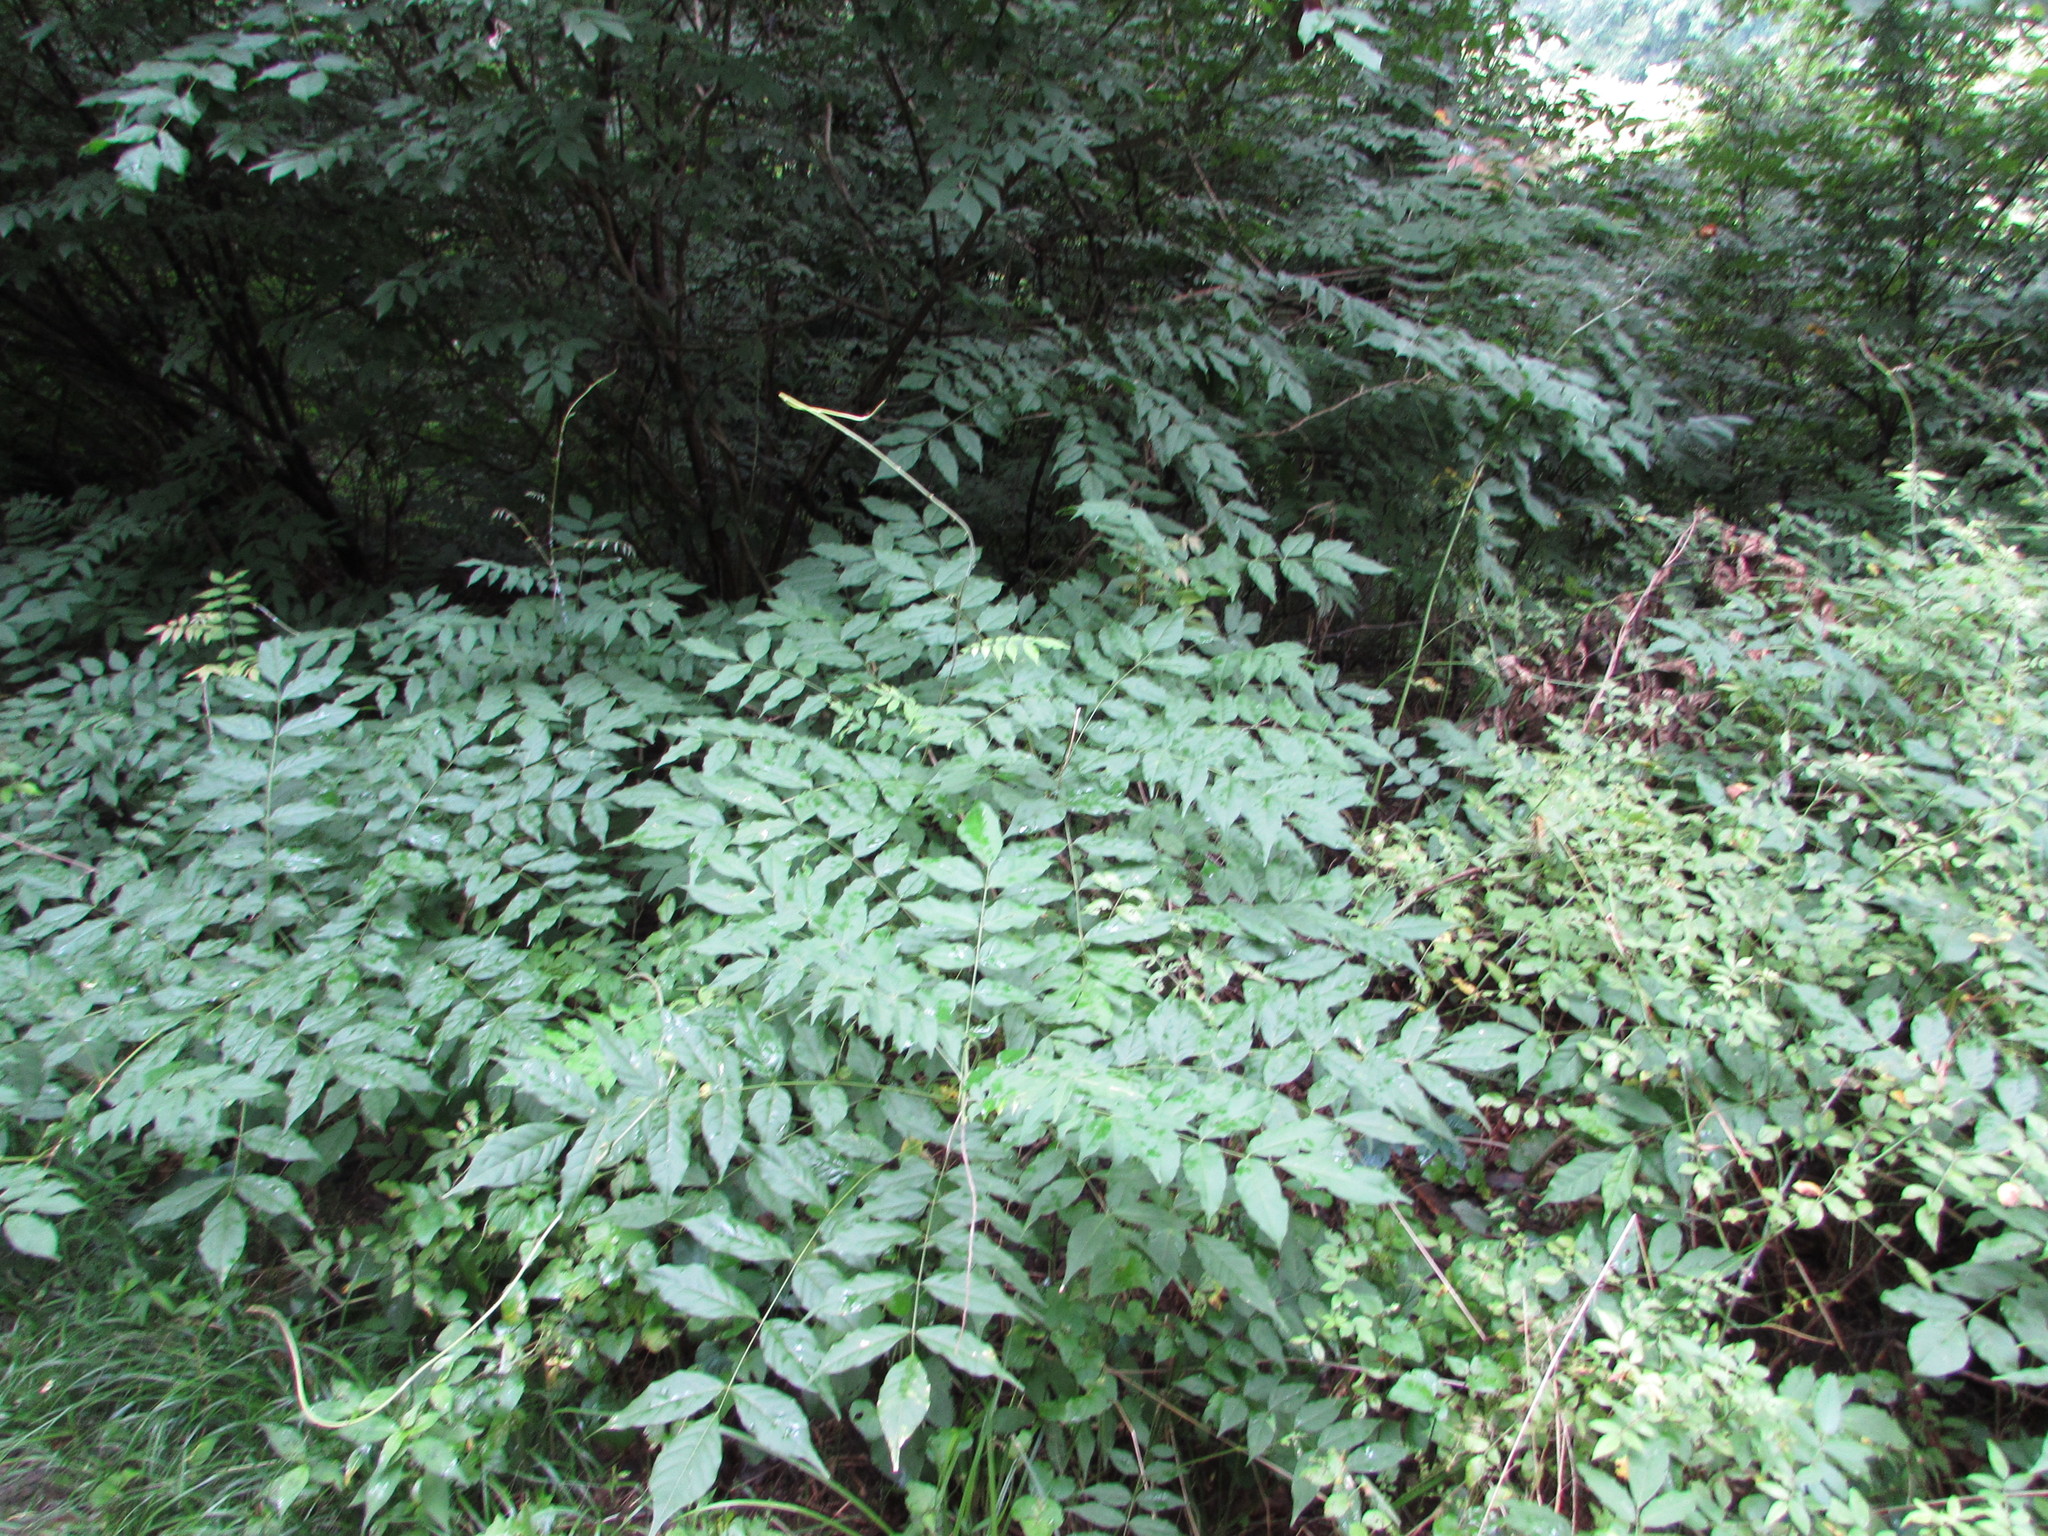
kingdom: Plantae
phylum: Tracheophyta
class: Magnoliopsida
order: Fabales
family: Fabaceae
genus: Wisteria
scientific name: Wisteria sinensis
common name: Chinese wisteria
